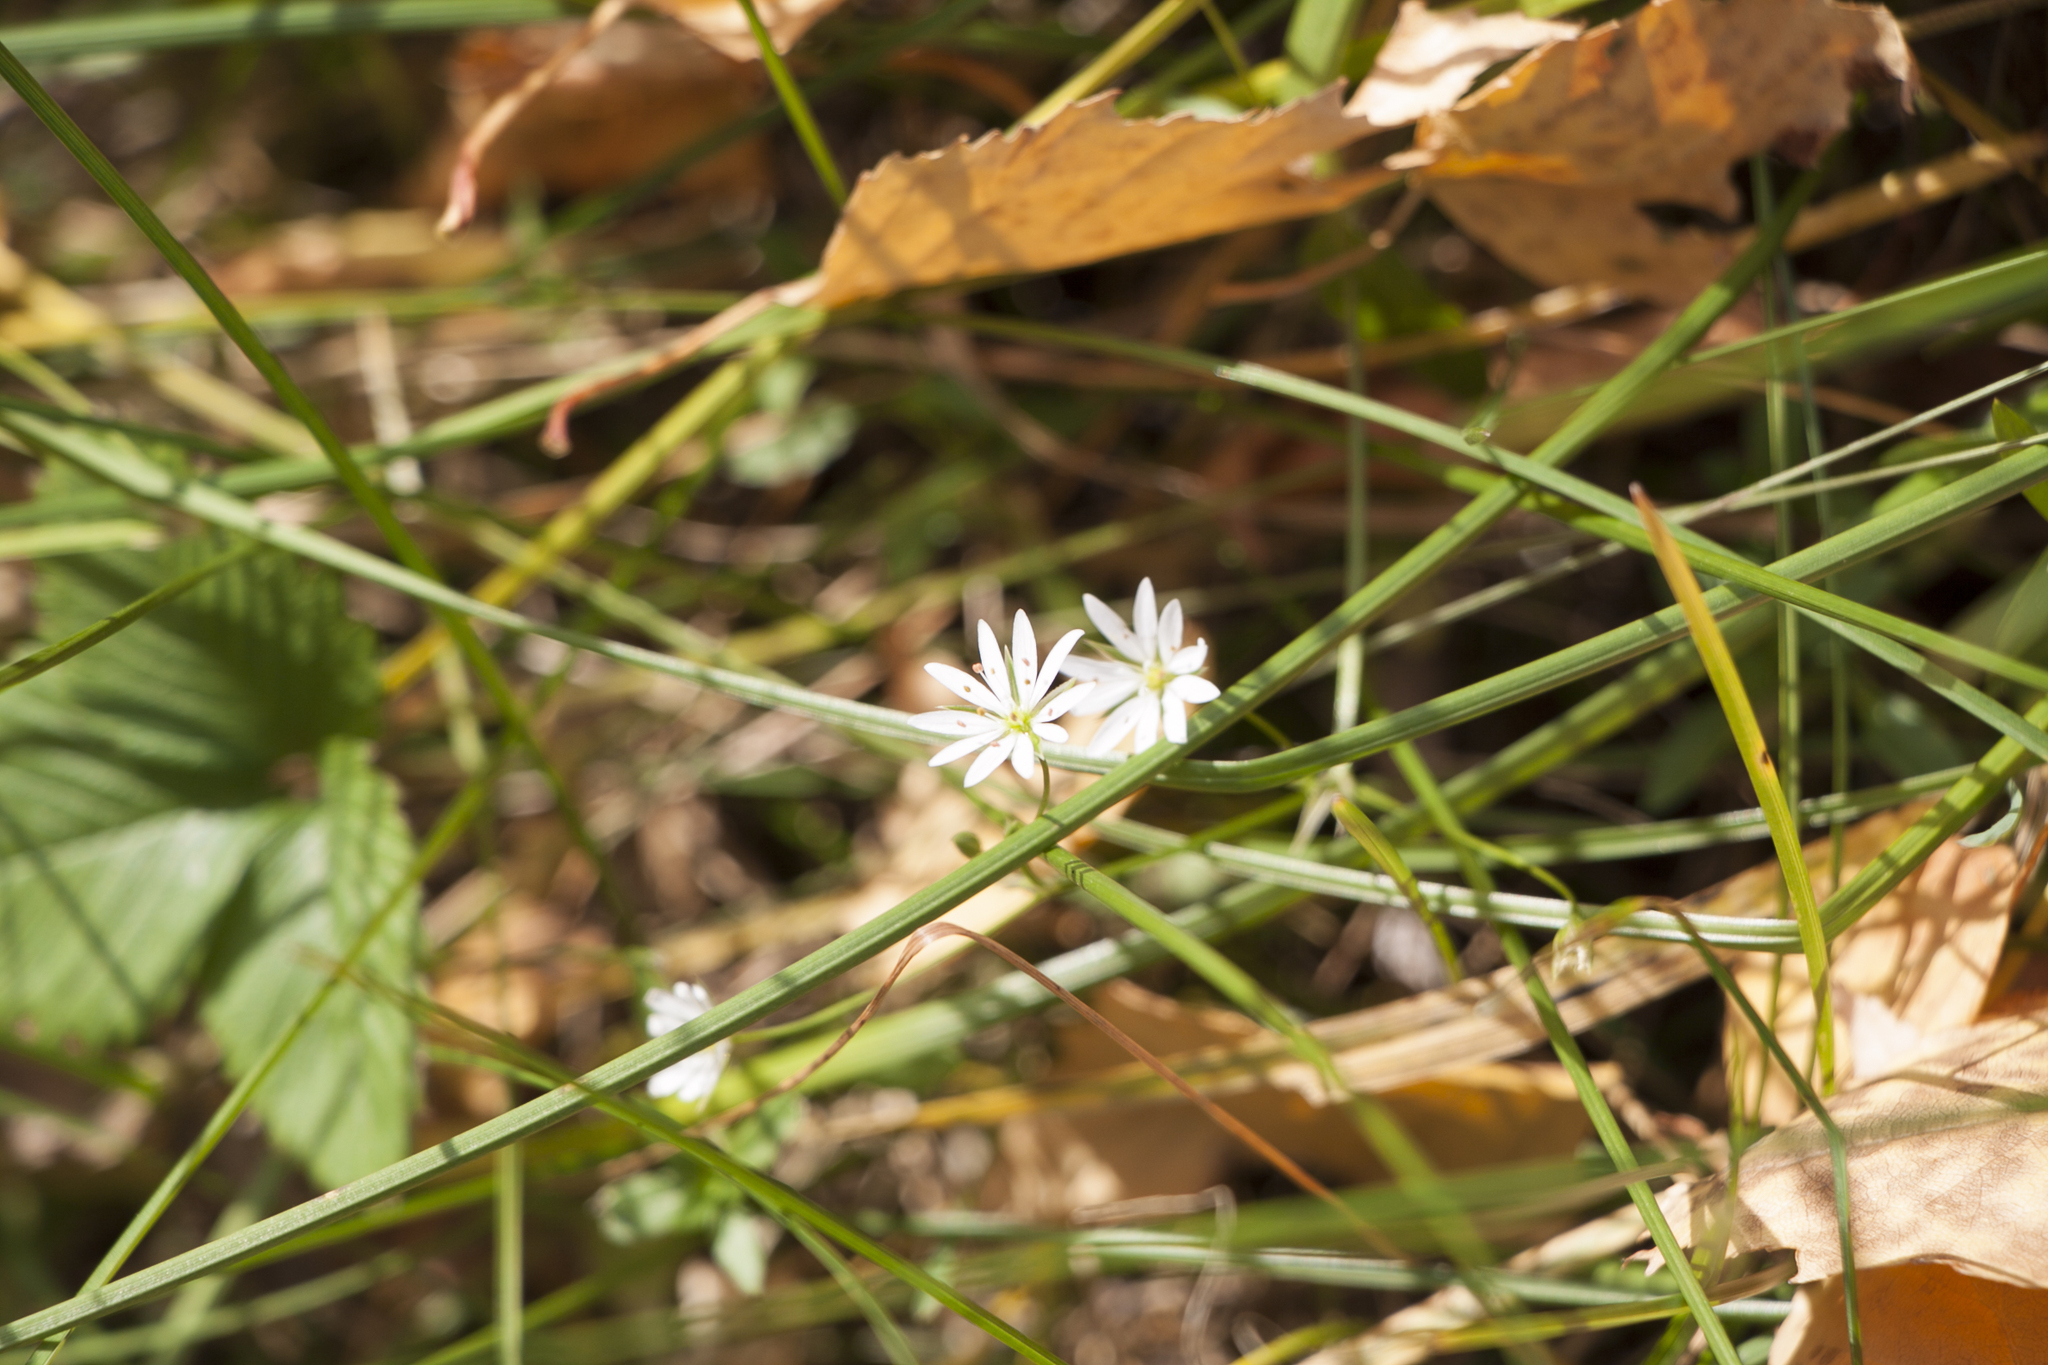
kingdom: Plantae
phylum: Tracheophyta
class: Magnoliopsida
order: Caryophyllales
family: Caryophyllaceae
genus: Stellaria
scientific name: Stellaria graminea
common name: Grass-like starwort
